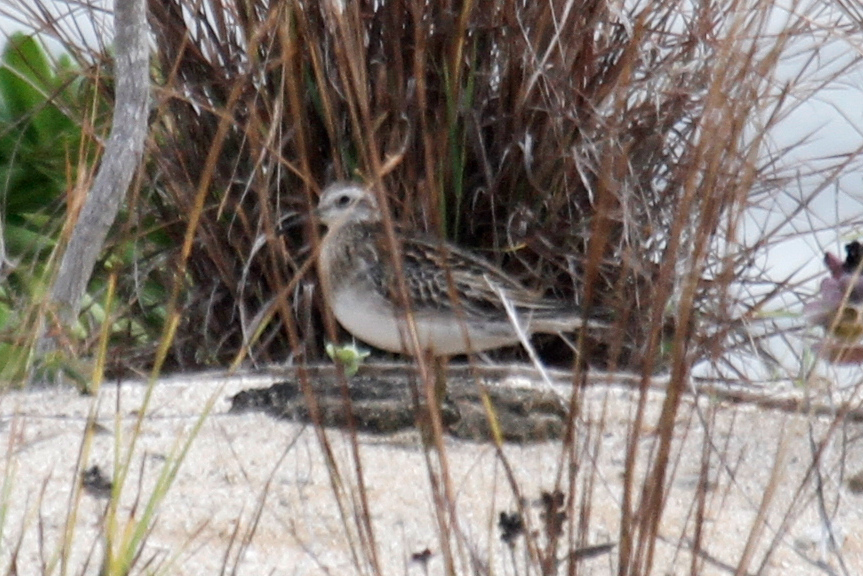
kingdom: Animalia
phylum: Chordata
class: Aves
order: Charadriiformes
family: Scolopacidae
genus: Calidris
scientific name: Calidris acuminata
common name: Sharp-tailed sandpiper
